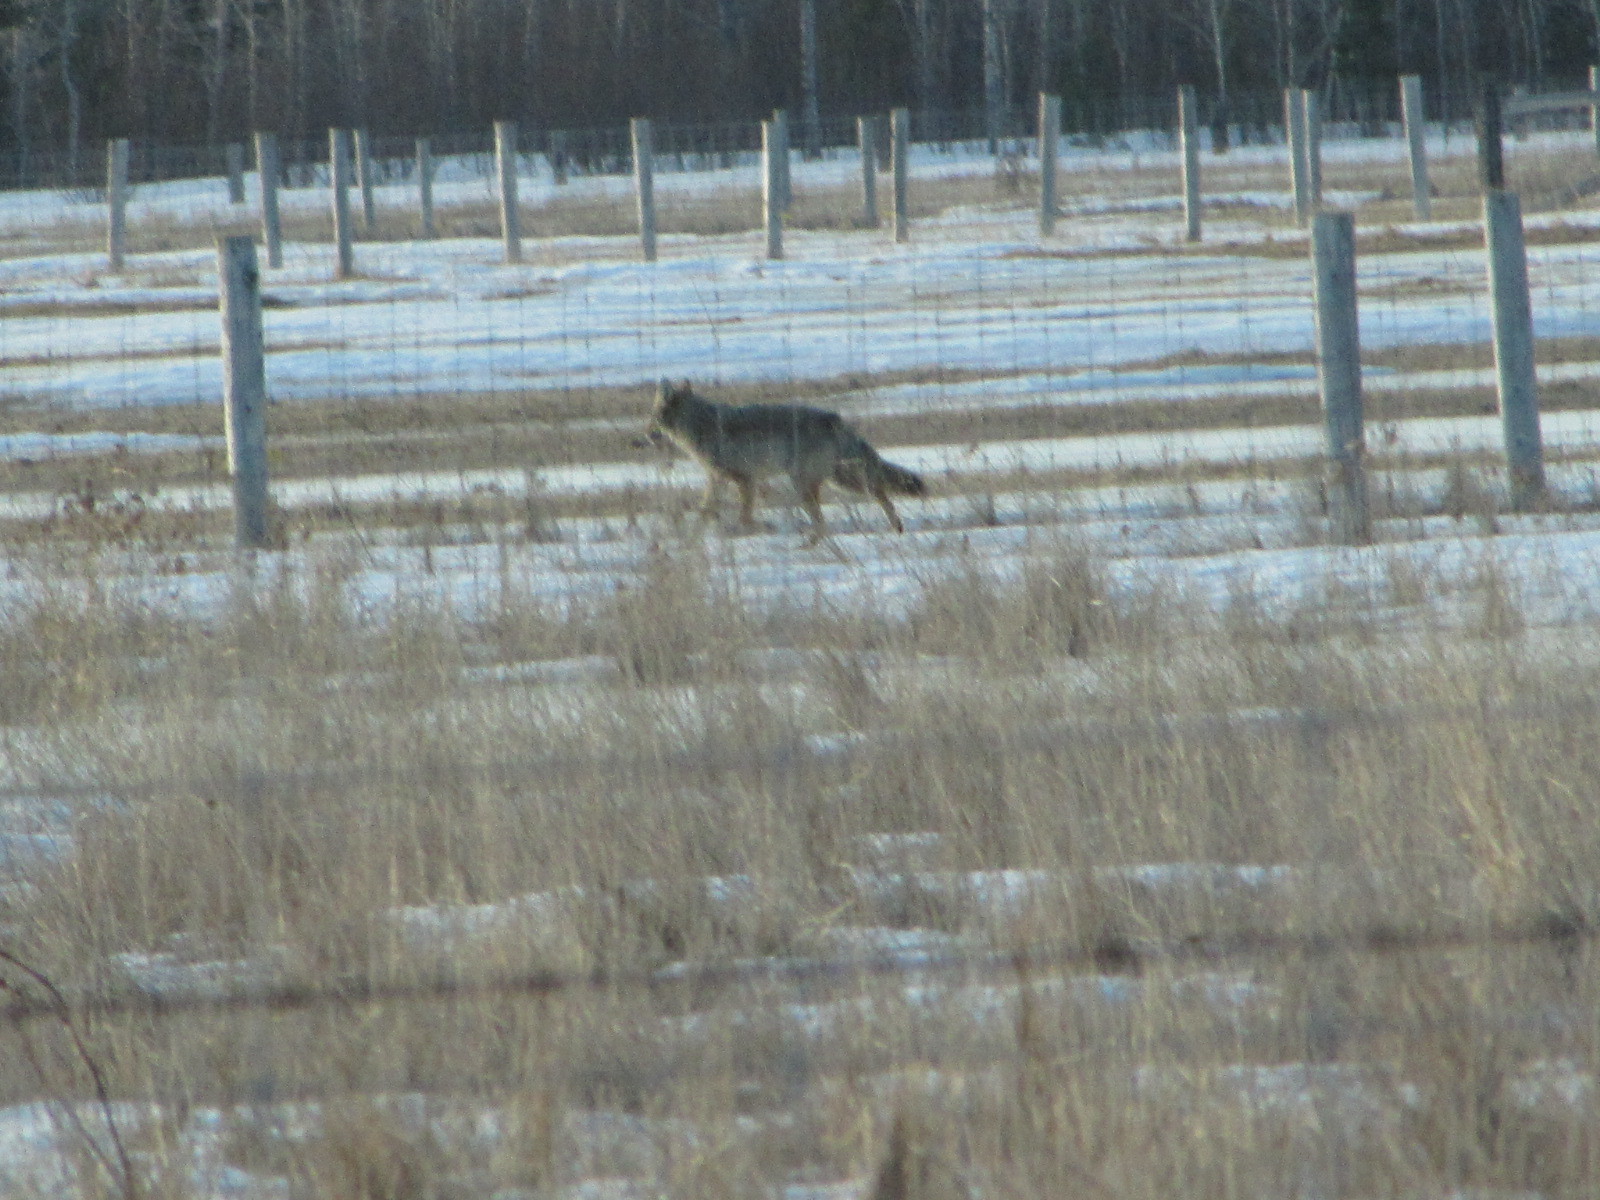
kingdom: Animalia
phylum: Chordata
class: Mammalia
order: Carnivora
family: Canidae
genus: Canis
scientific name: Canis latrans
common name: Coyote
